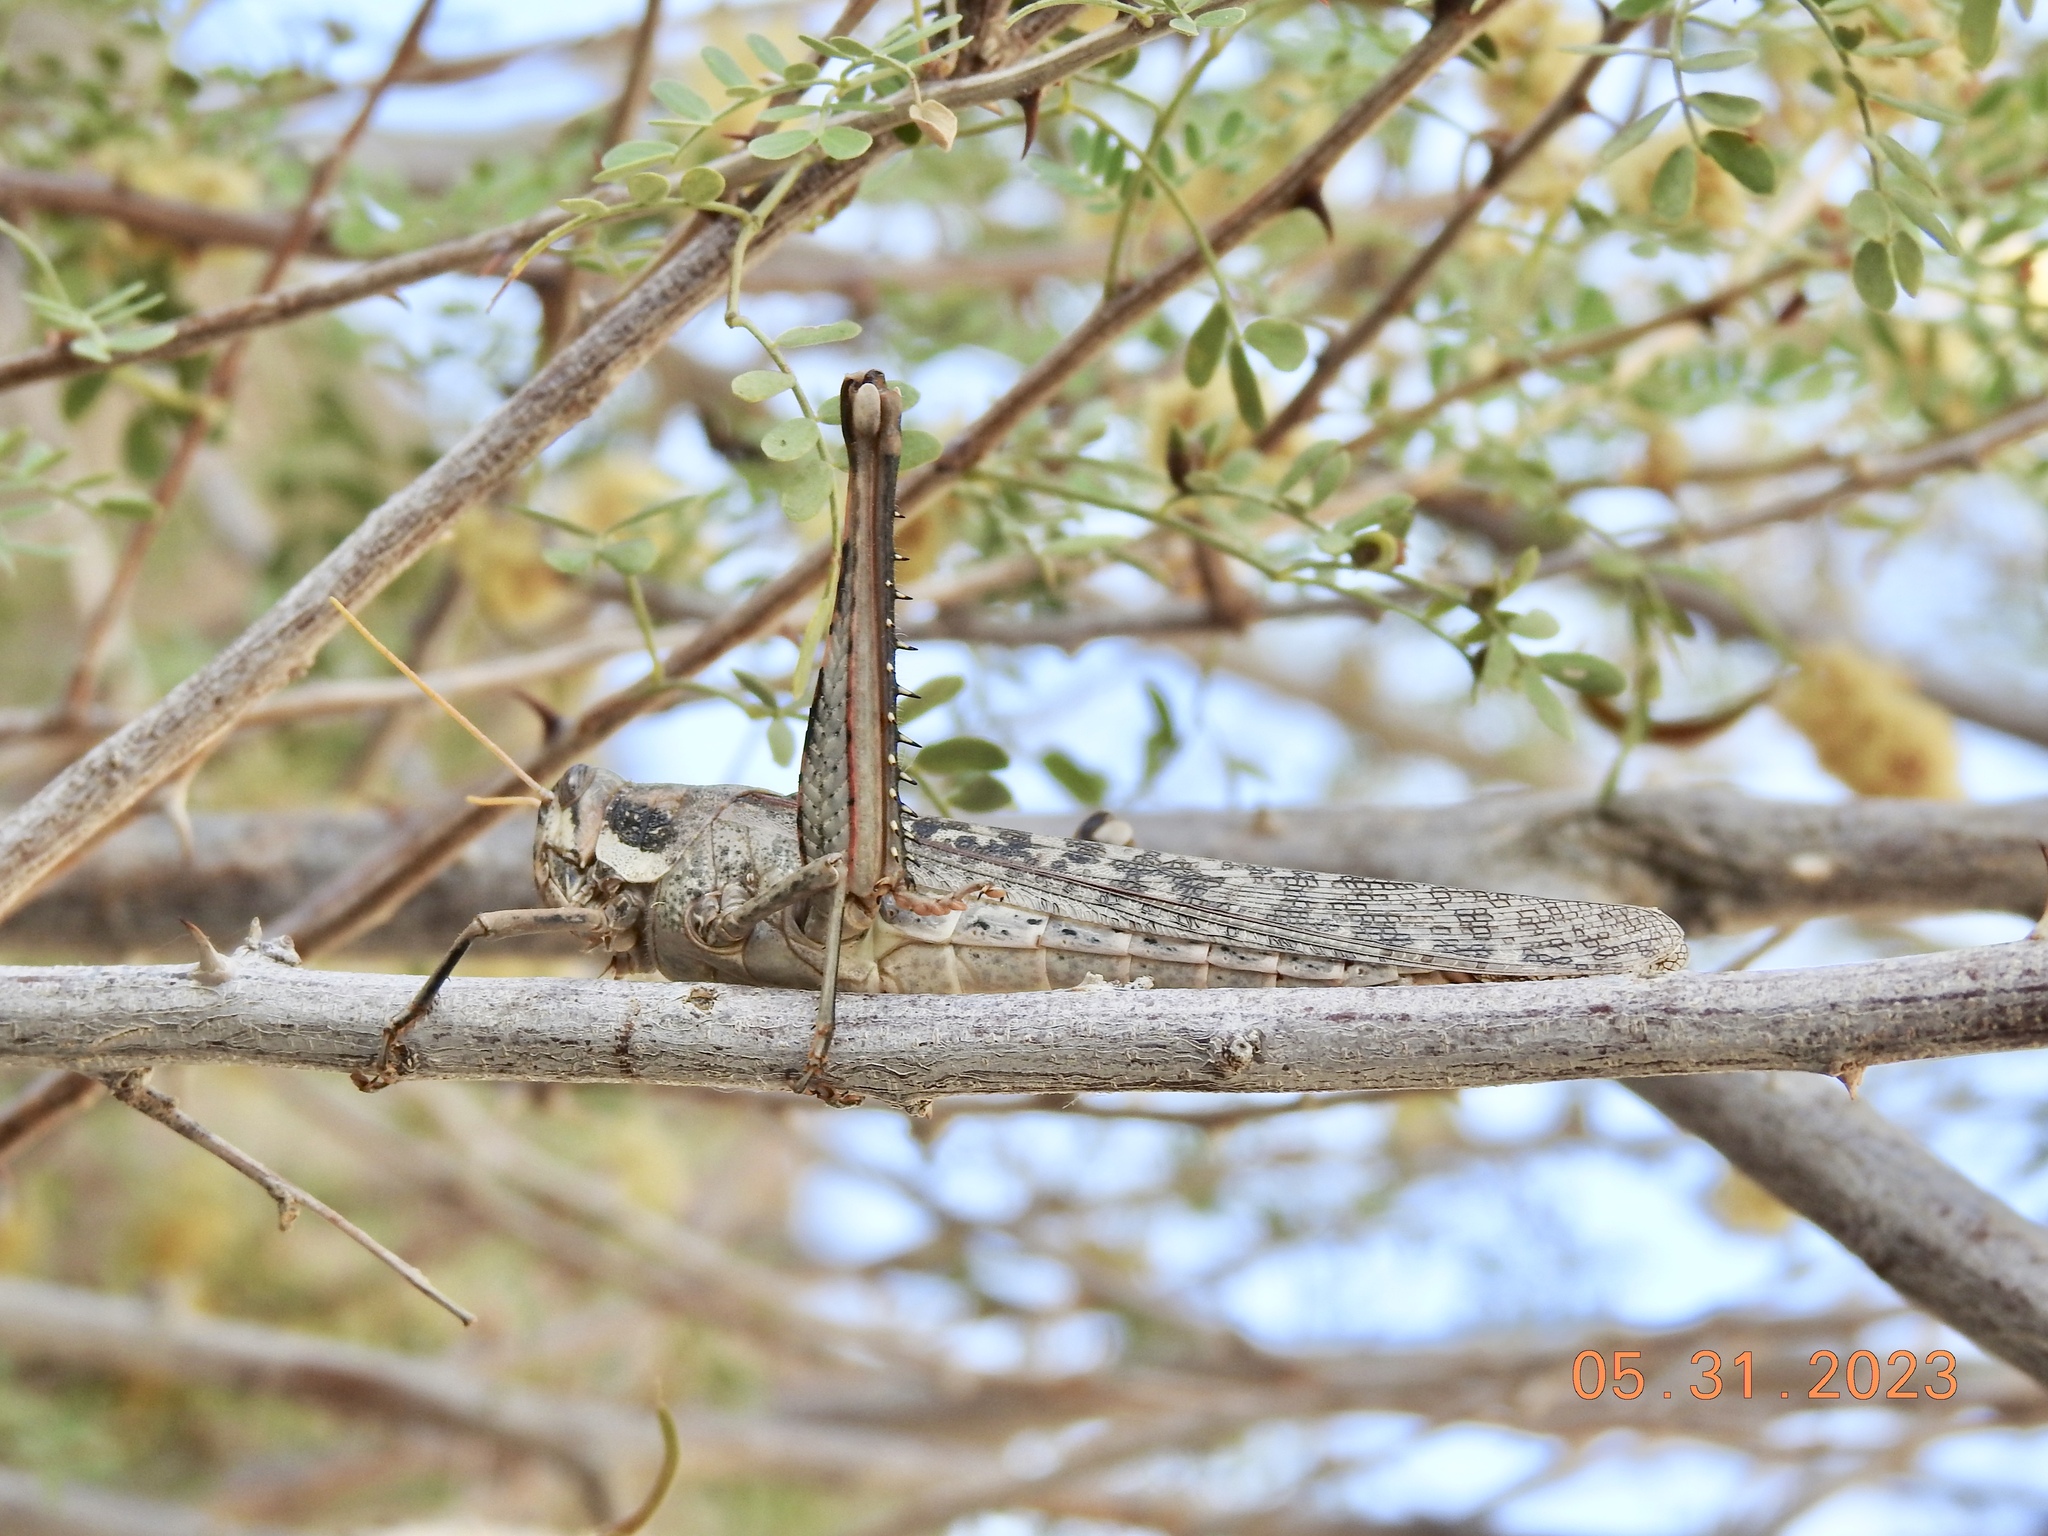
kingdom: Animalia
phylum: Arthropoda
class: Insecta
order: Orthoptera
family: Acrididae
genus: Schistocerca
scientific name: Schistocerca nitens
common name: Vagrant grasshopper
